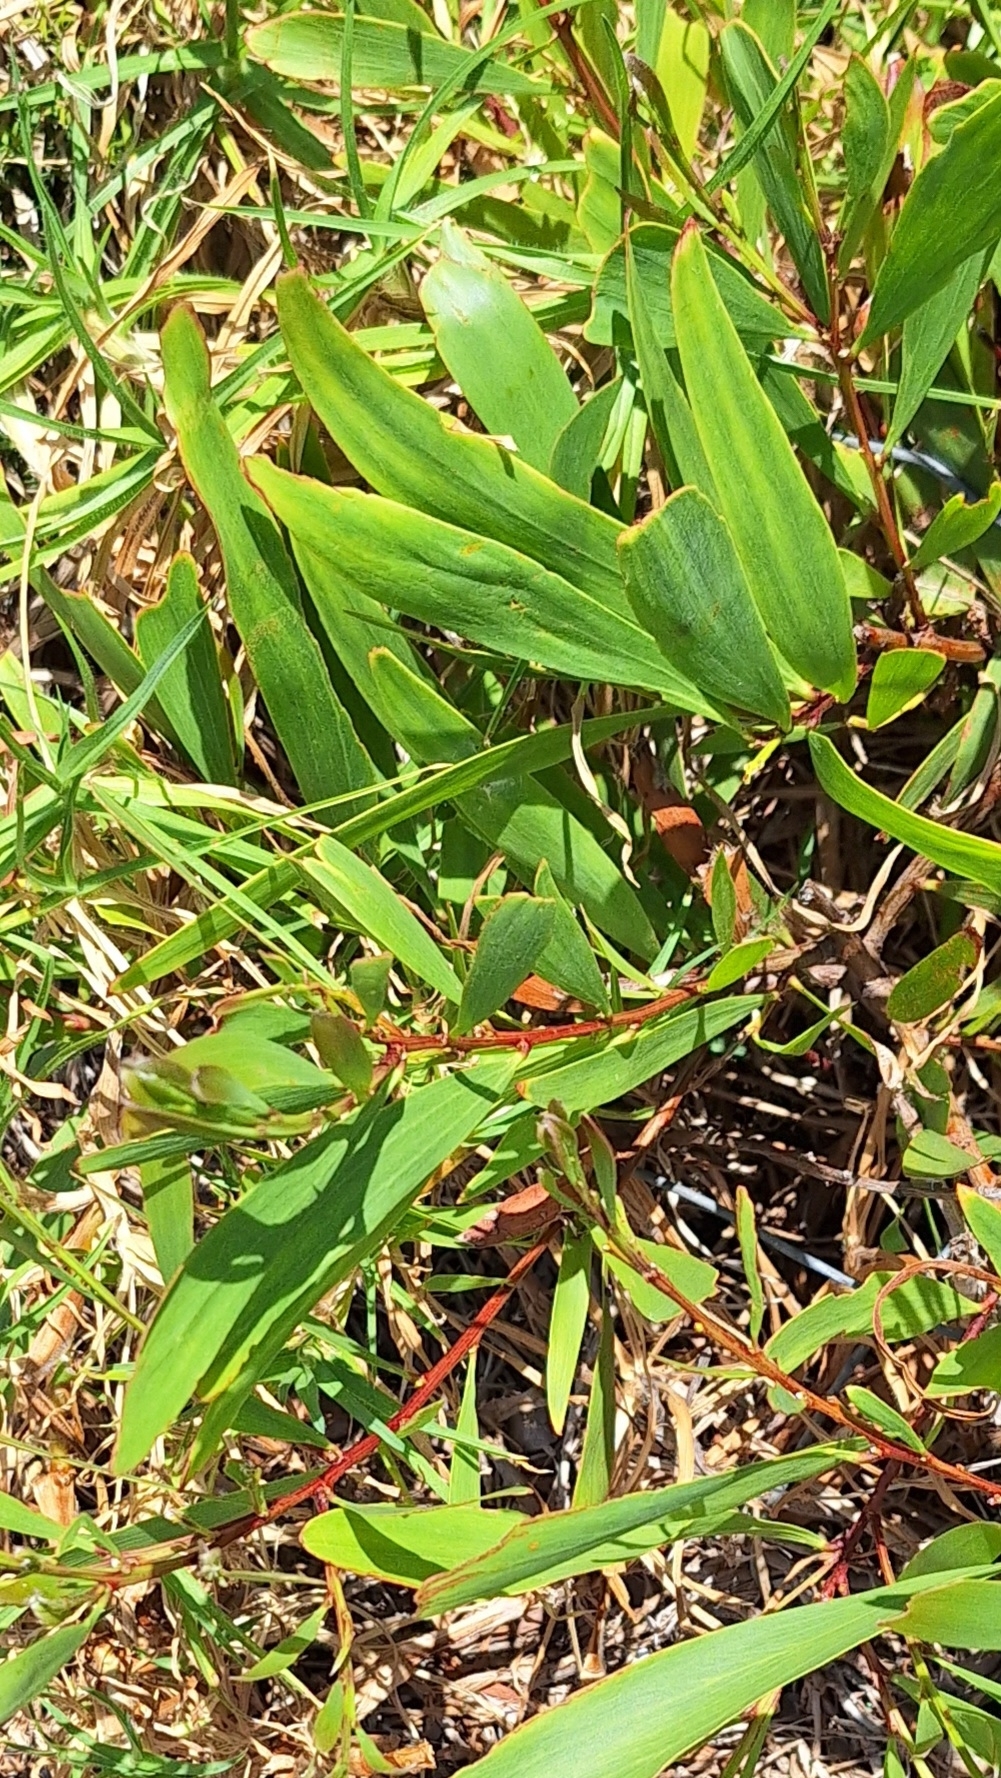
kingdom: Plantae
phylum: Tracheophyta
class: Magnoliopsida
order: Fabales
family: Fabaceae
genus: Acacia
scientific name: Acacia longifolia
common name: Sydney golden wattle
